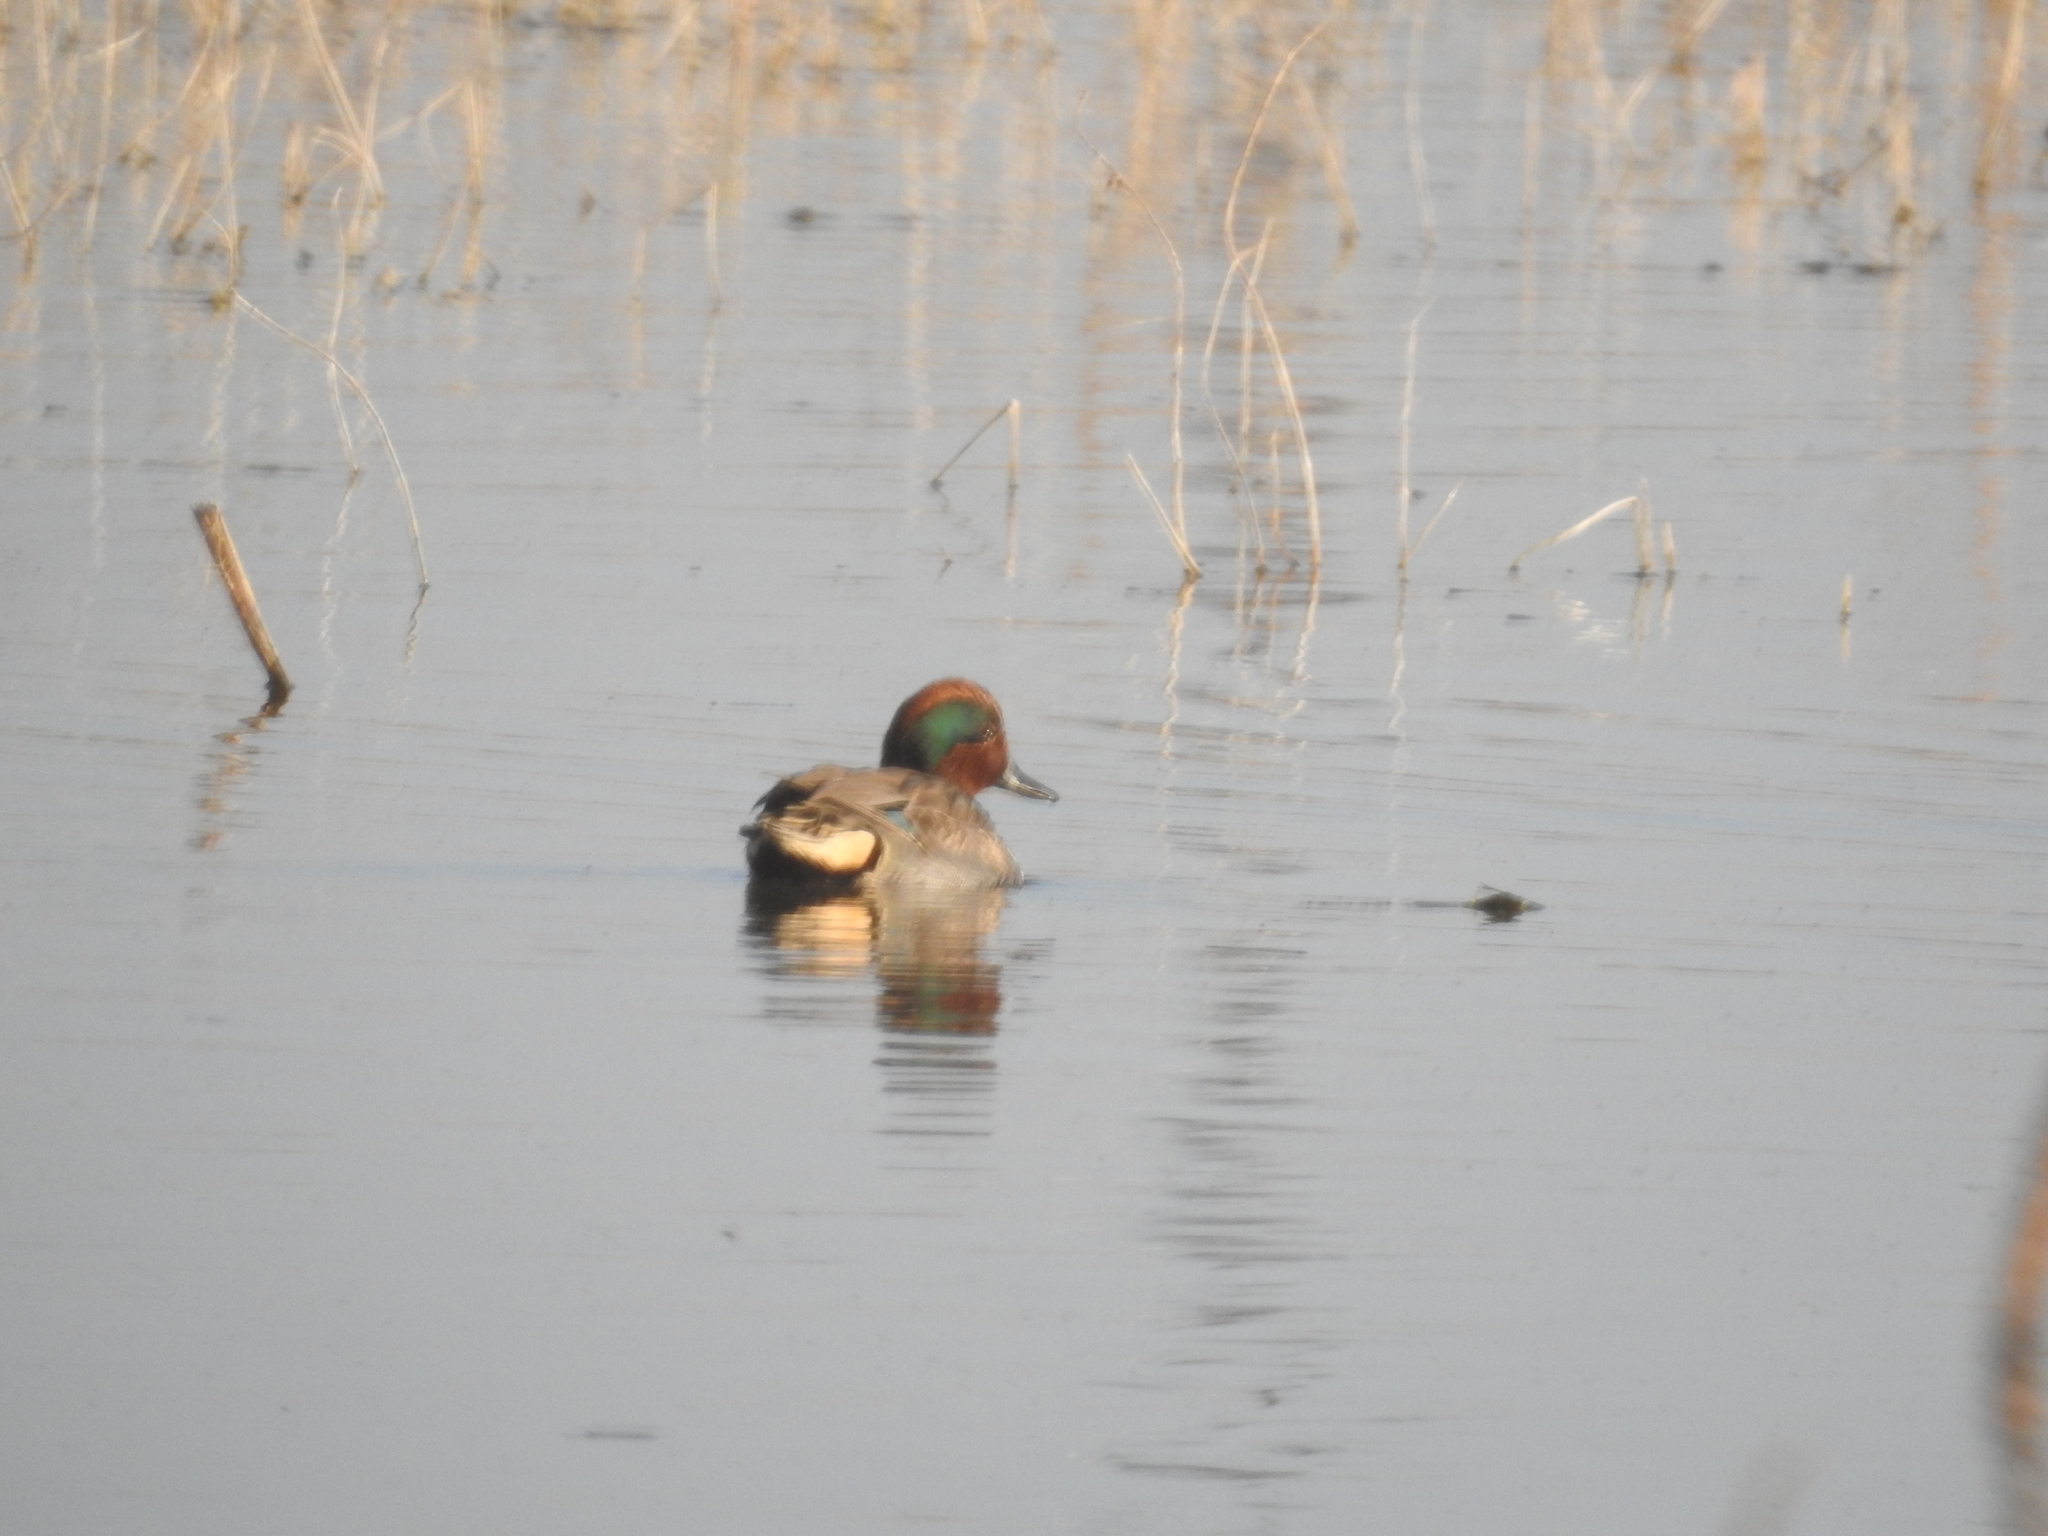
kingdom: Animalia
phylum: Chordata
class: Aves
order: Anseriformes
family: Anatidae
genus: Anas
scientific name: Anas crecca
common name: Eurasian teal
